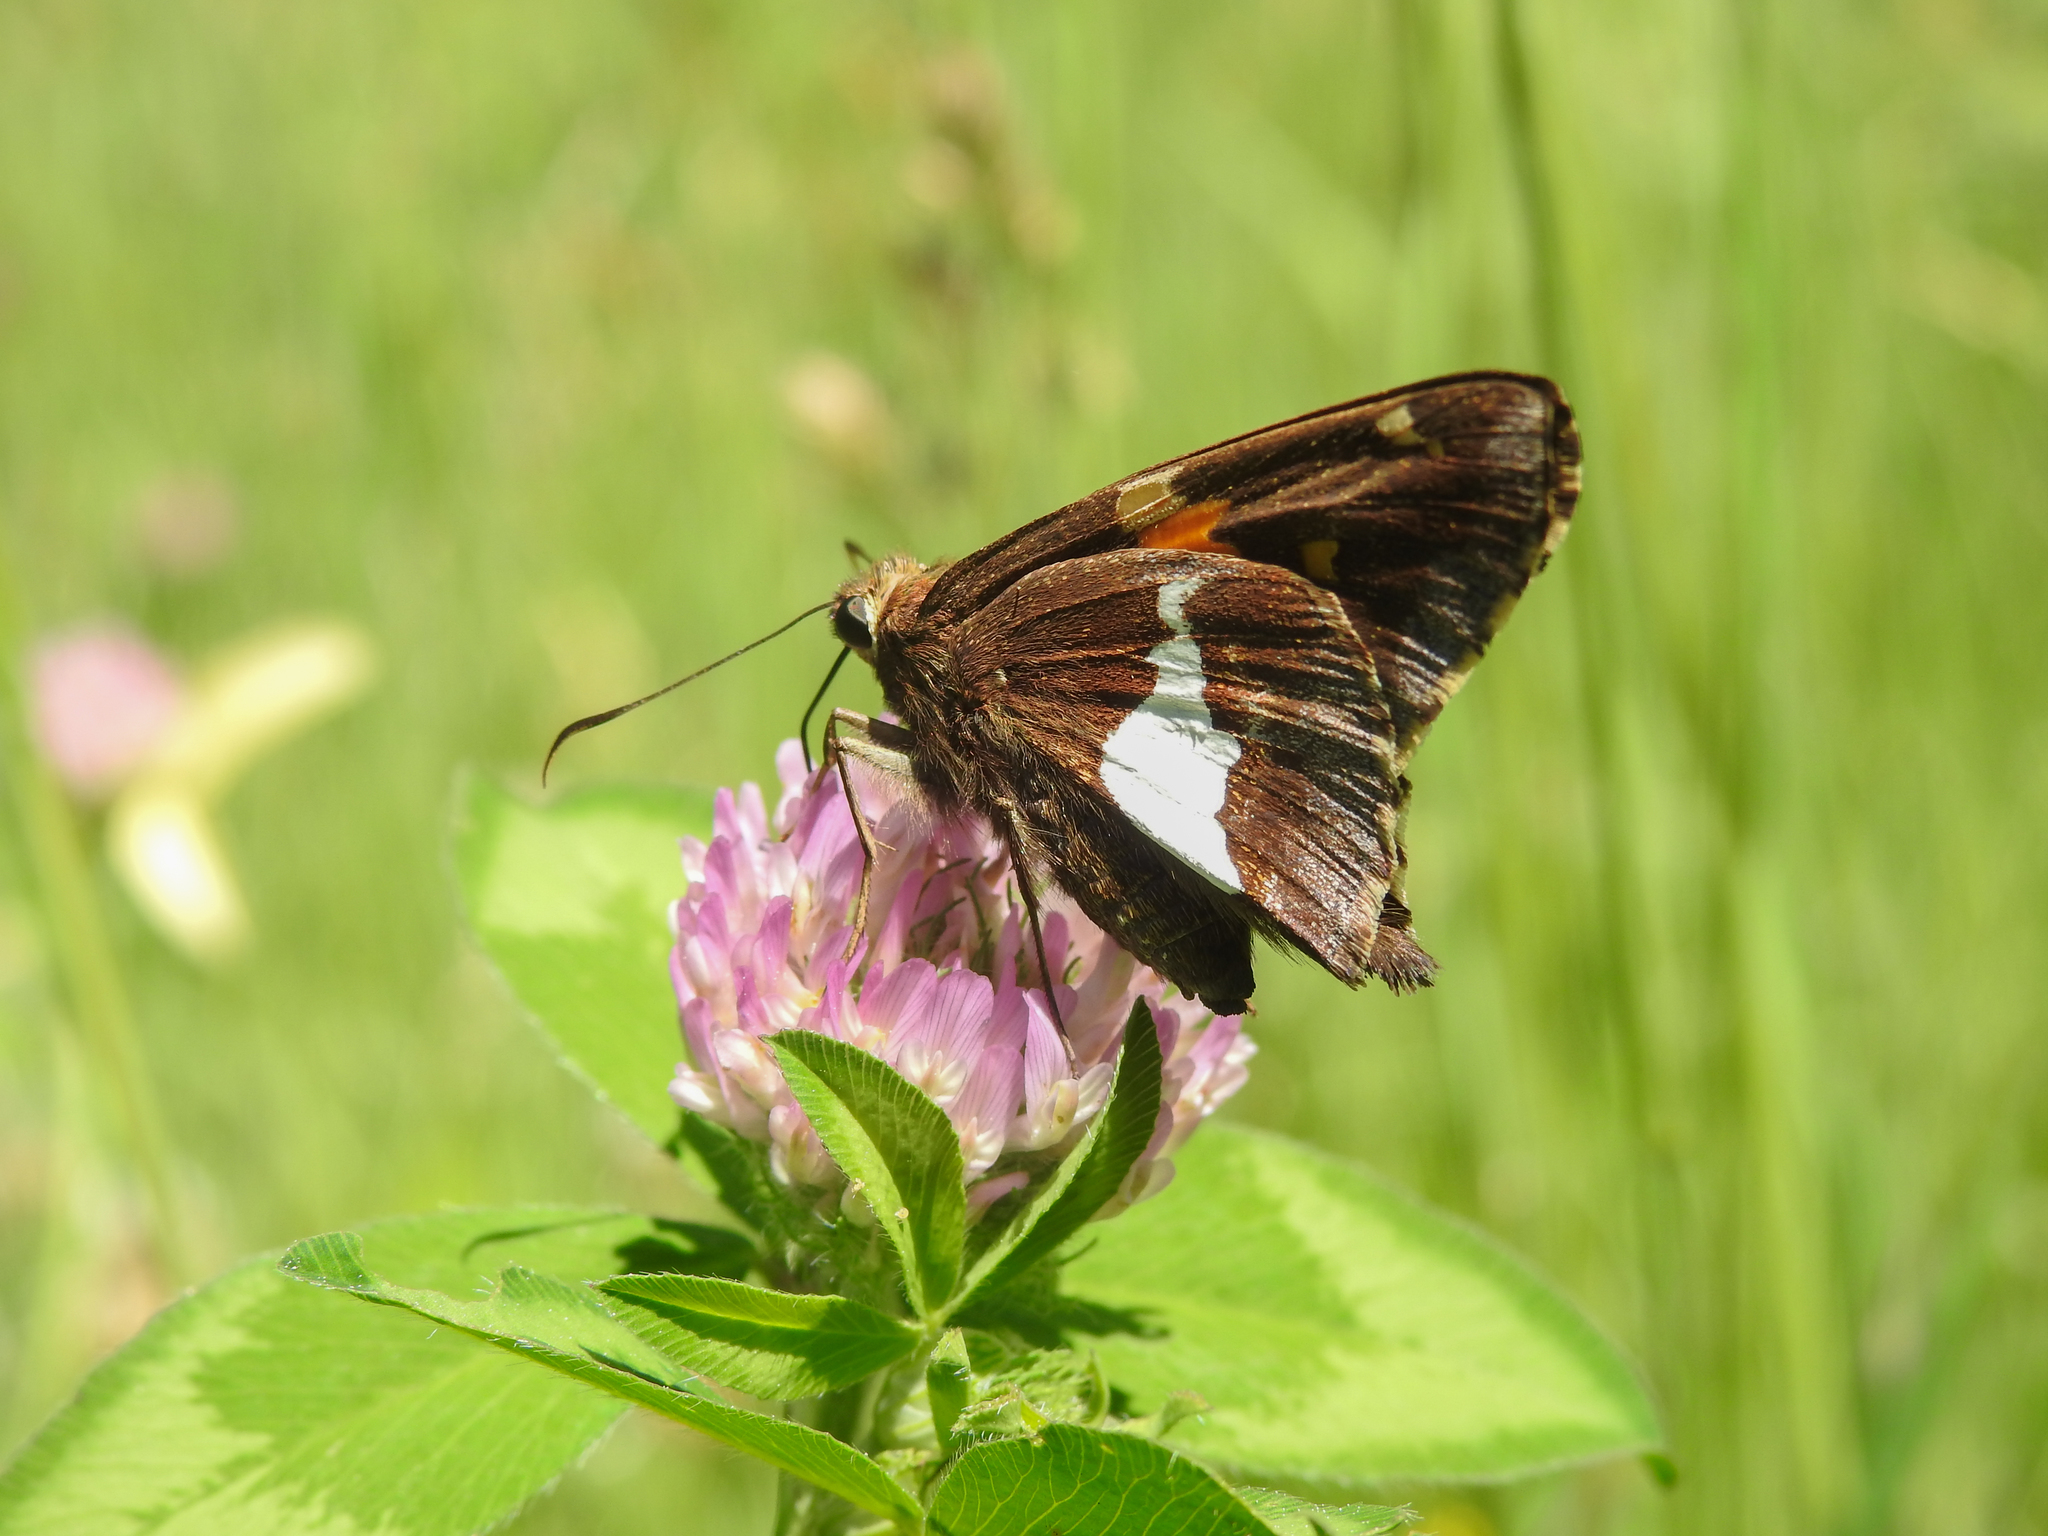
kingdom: Animalia
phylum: Arthropoda
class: Insecta
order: Lepidoptera
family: Hesperiidae
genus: Epargyreus
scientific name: Epargyreus clarus
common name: Silver-spotted skipper
